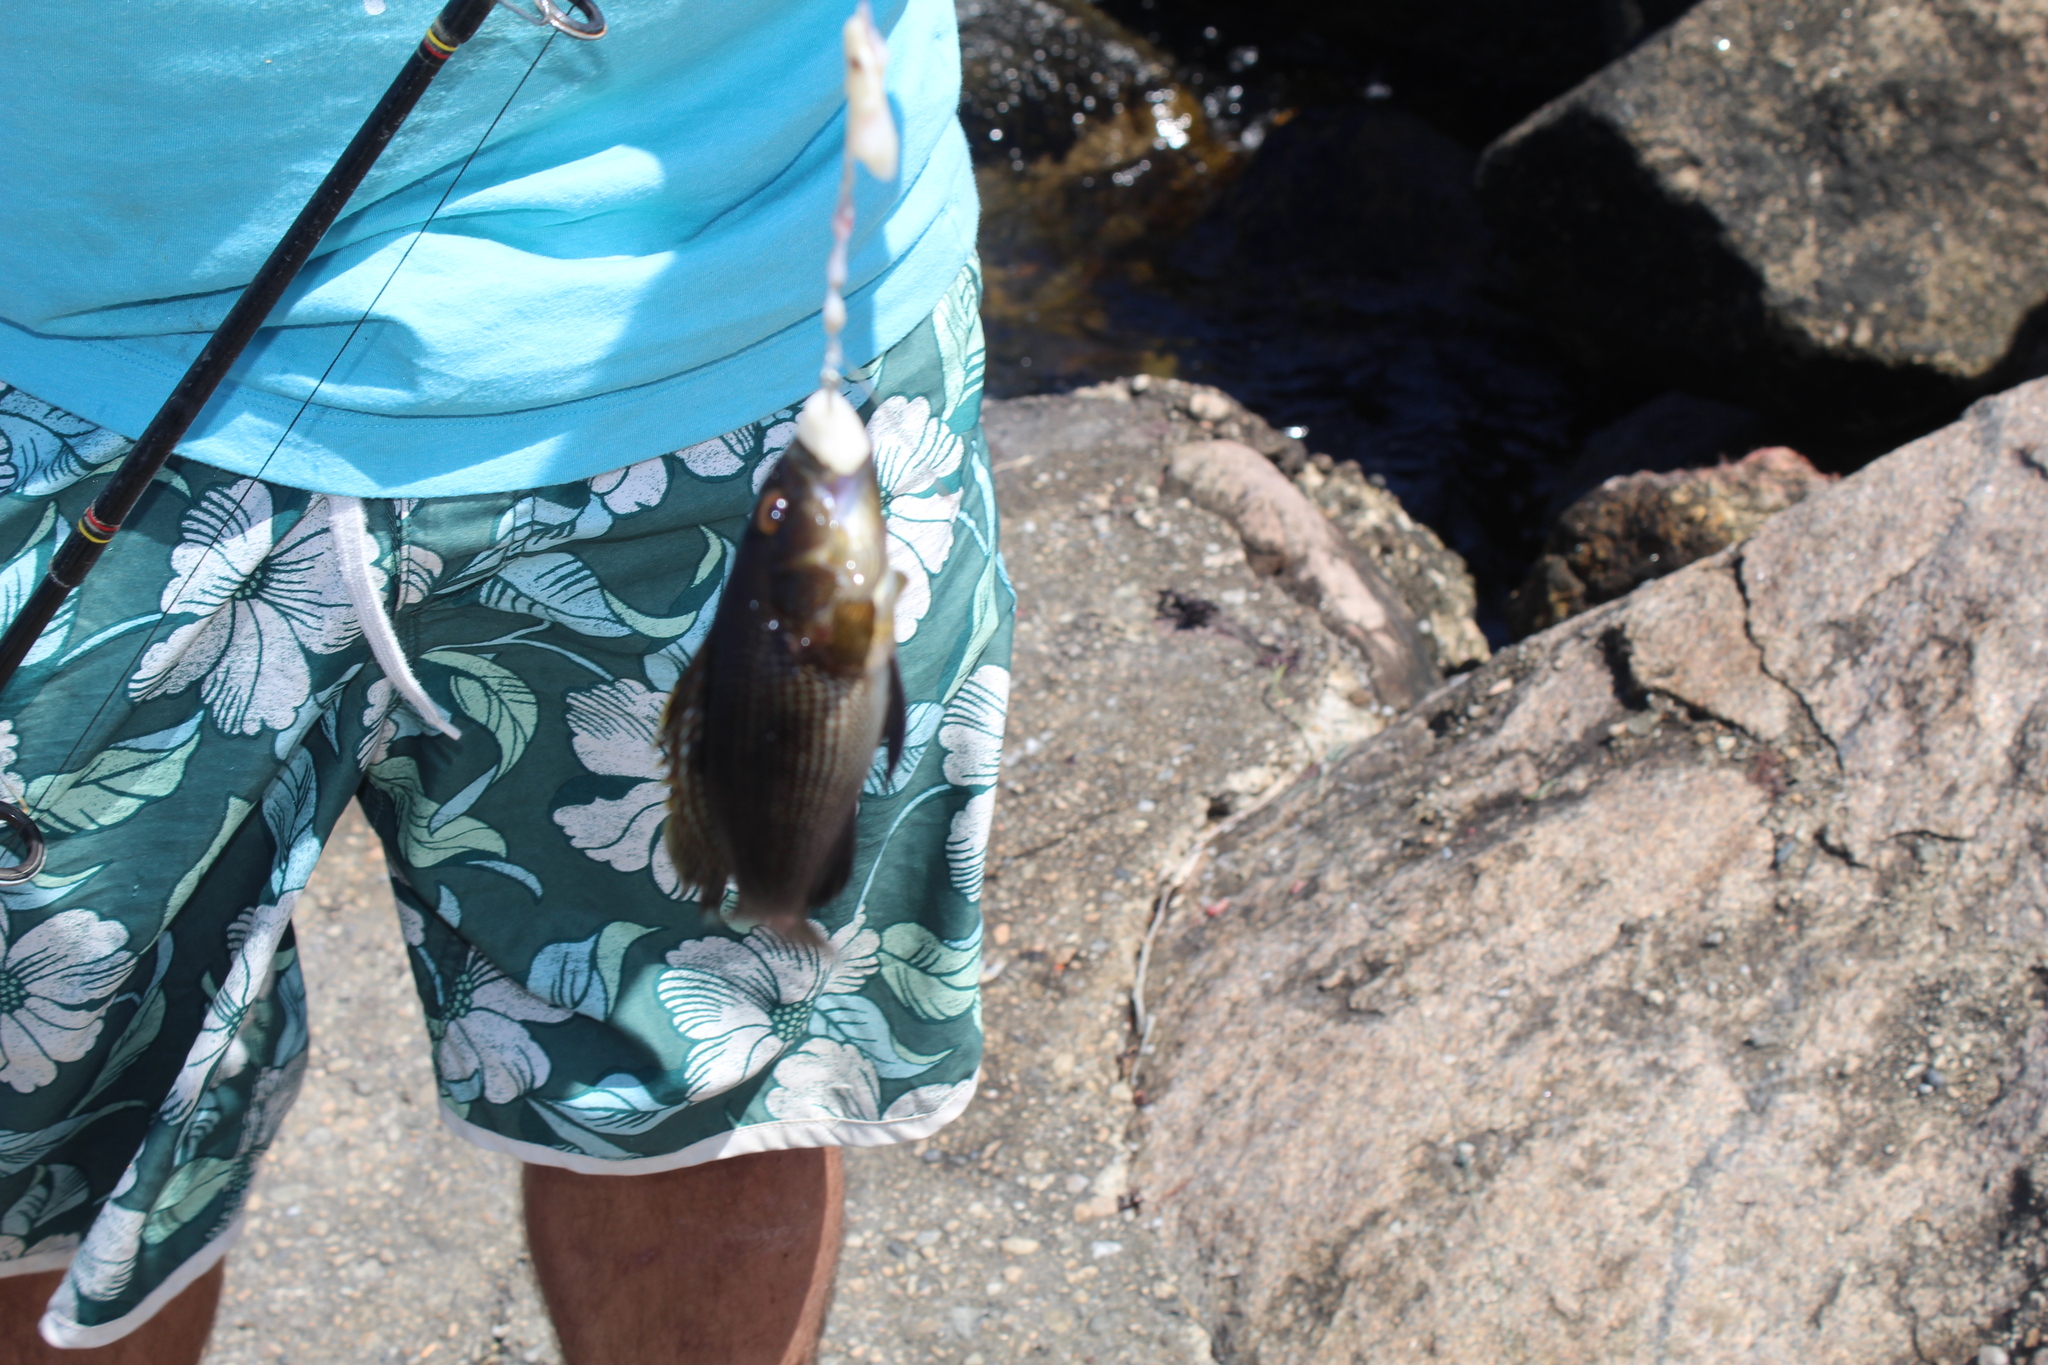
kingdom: Animalia
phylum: Chordata
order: Perciformes
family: Serranidae
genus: Centropristis
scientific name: Centropristis striata
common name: Black sea bass
